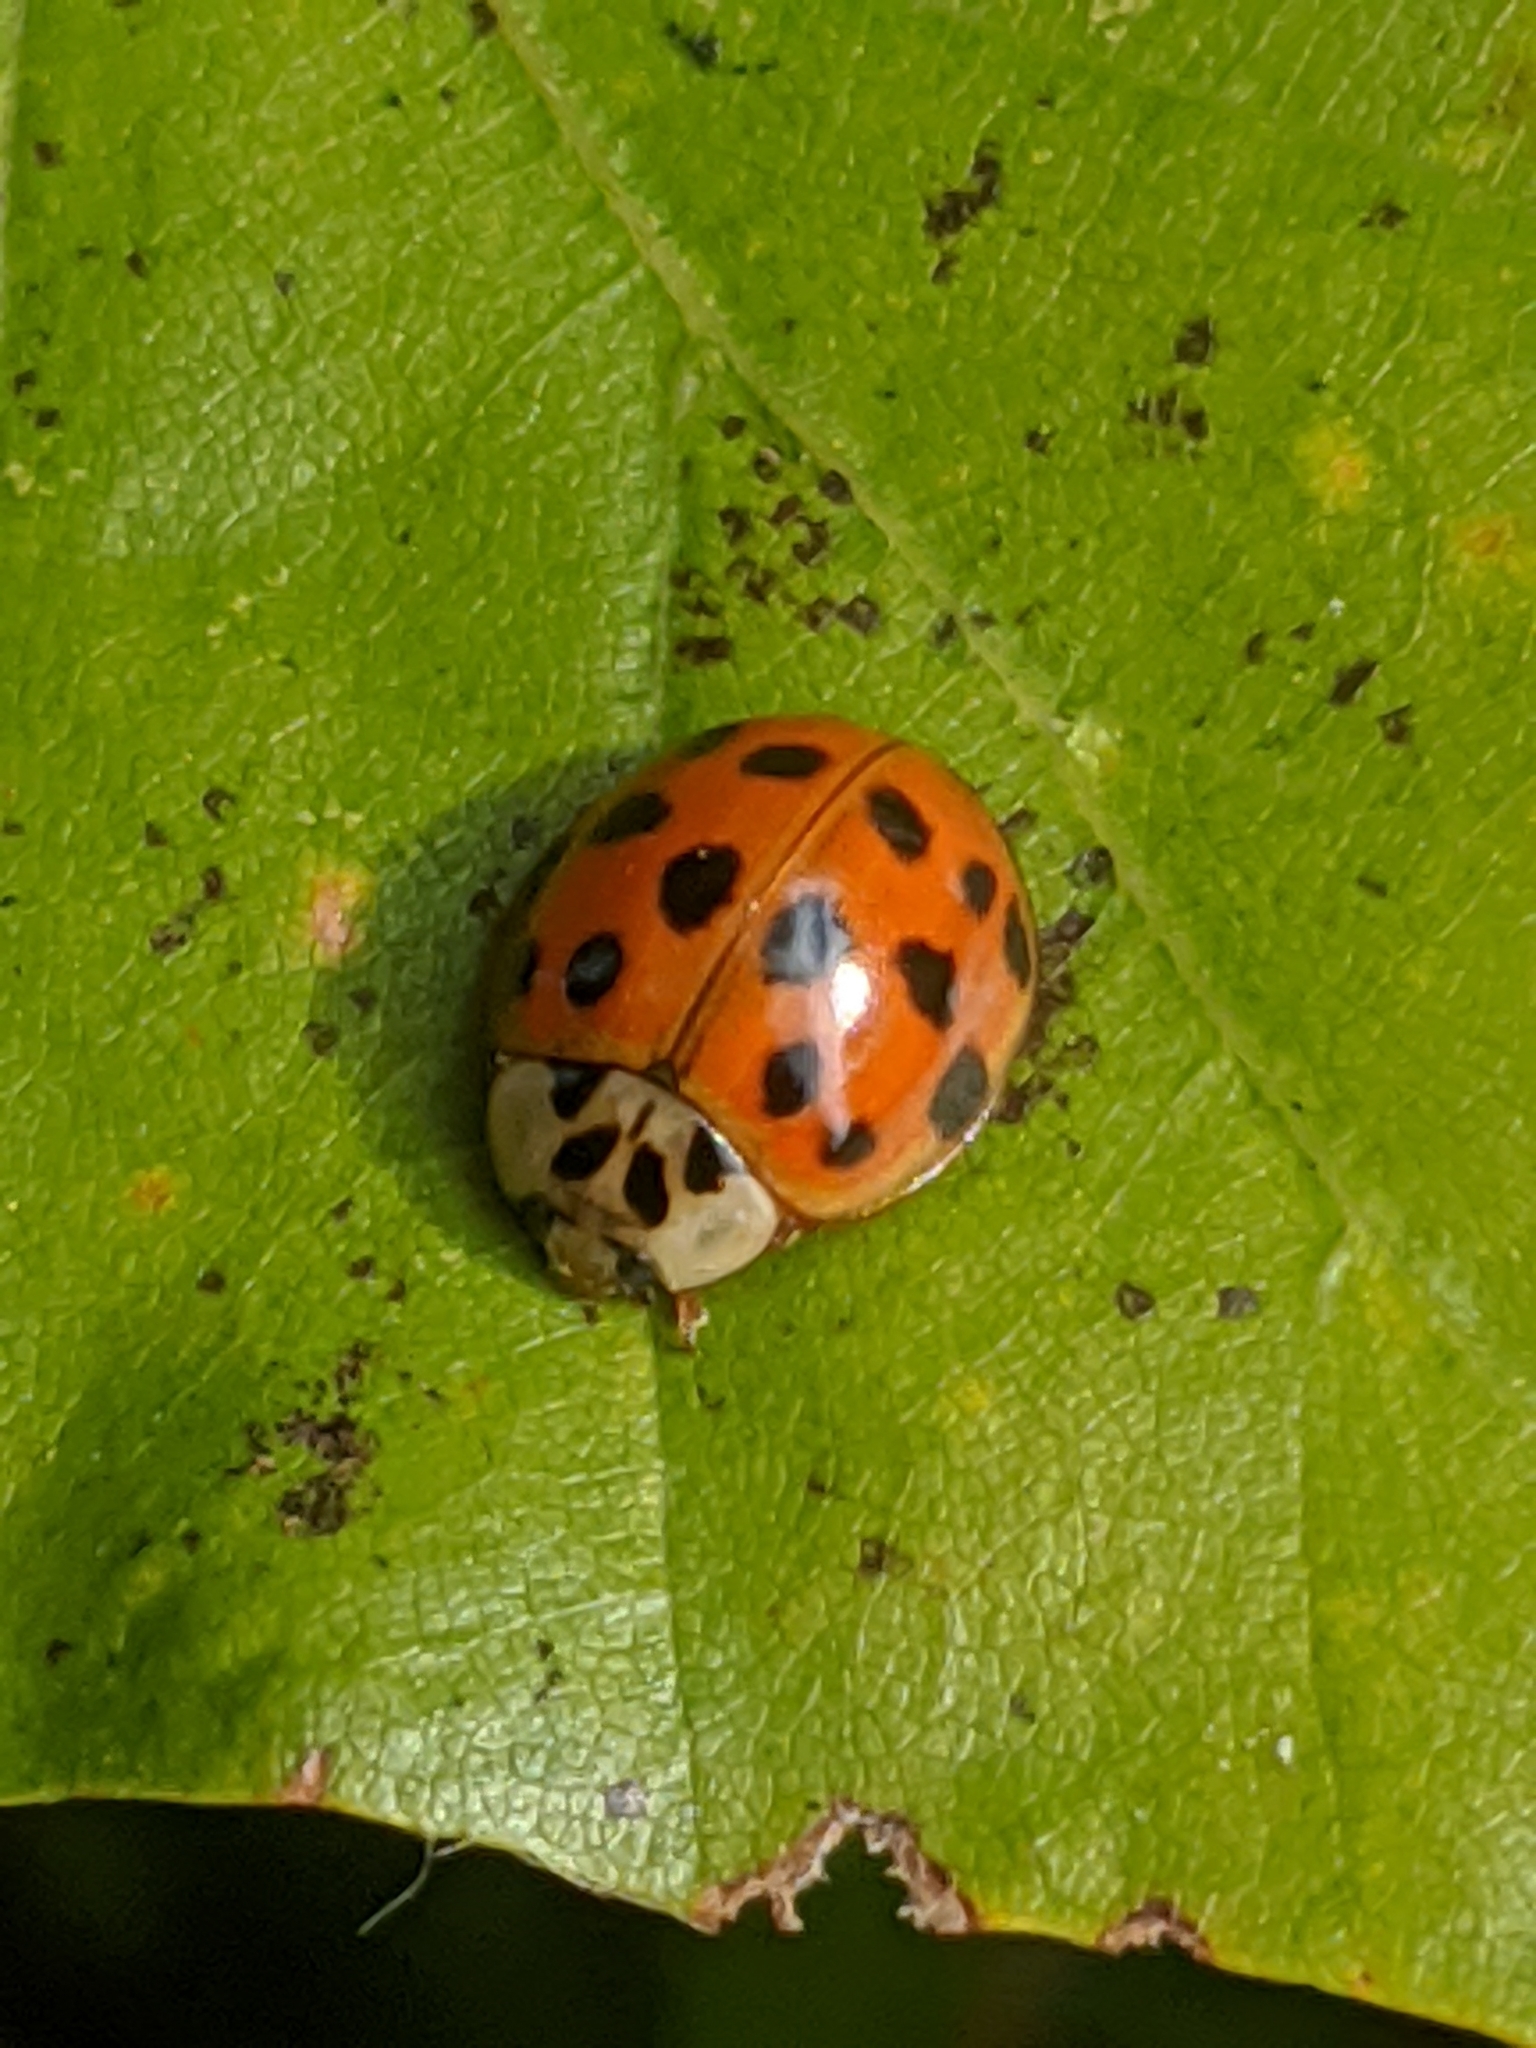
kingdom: Animalia
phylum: Arthropoda
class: Insecta
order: Coleoptera
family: Coccinellidae
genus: Harmonia
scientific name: Harmonia axyridis
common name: Harlequin ladybird
